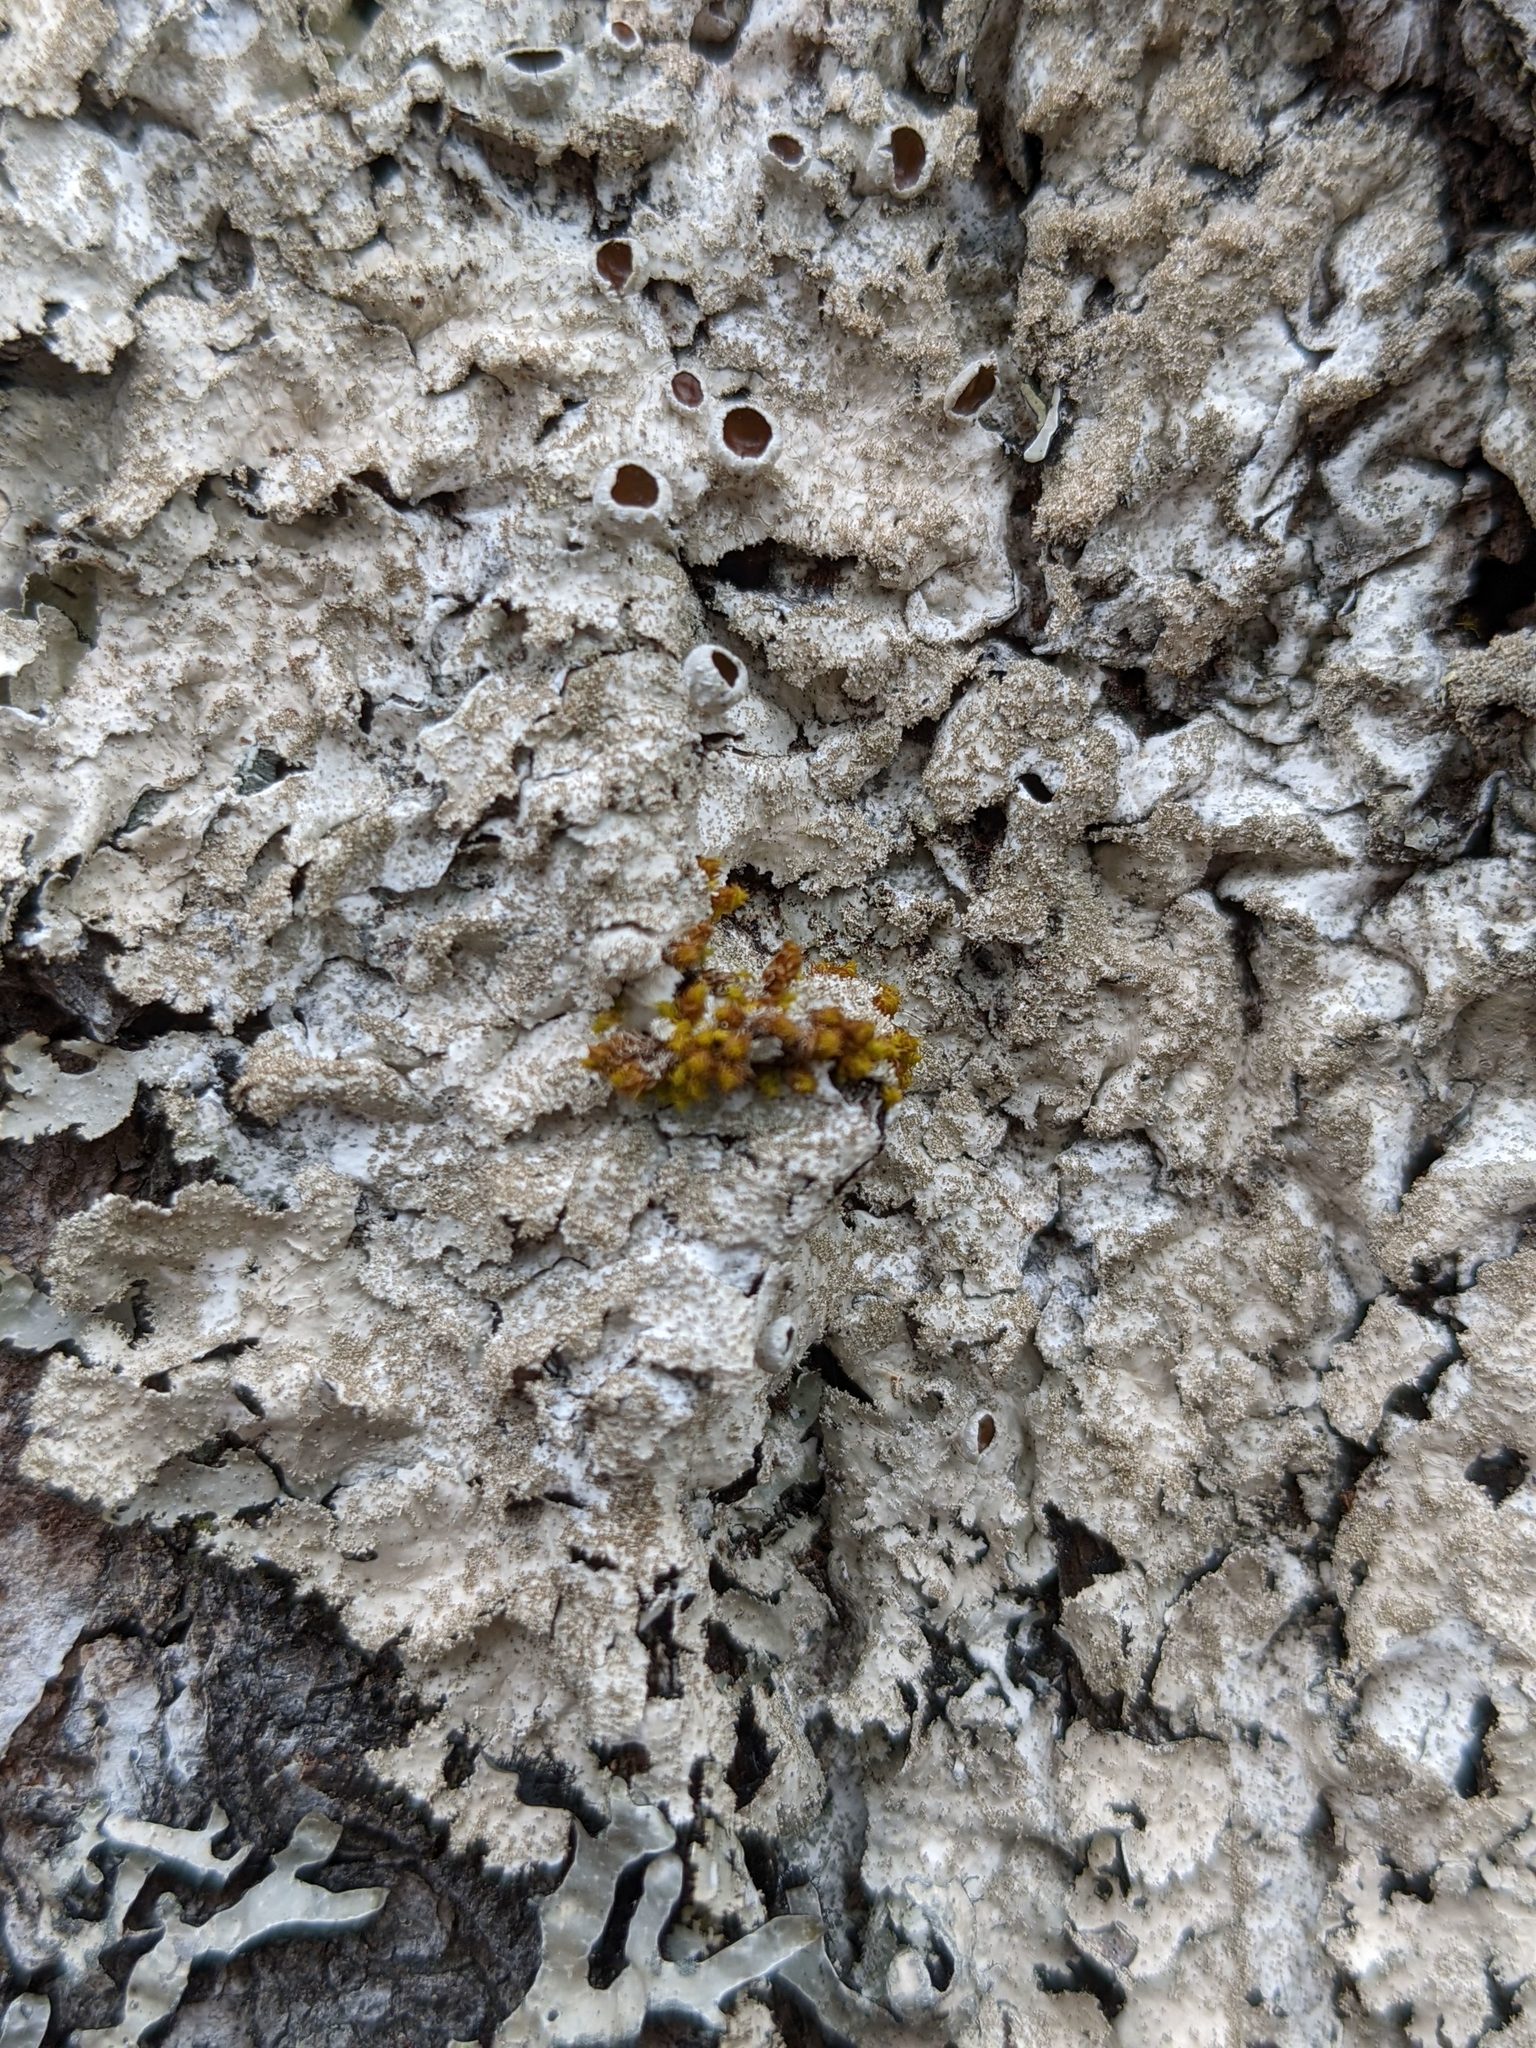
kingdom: Plantae
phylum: Bryophyta
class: Bryopsida
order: Orthotrichales
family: Orthotrichaceae
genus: Ulota
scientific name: Ulota crispa
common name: Crisped pincushion moss
